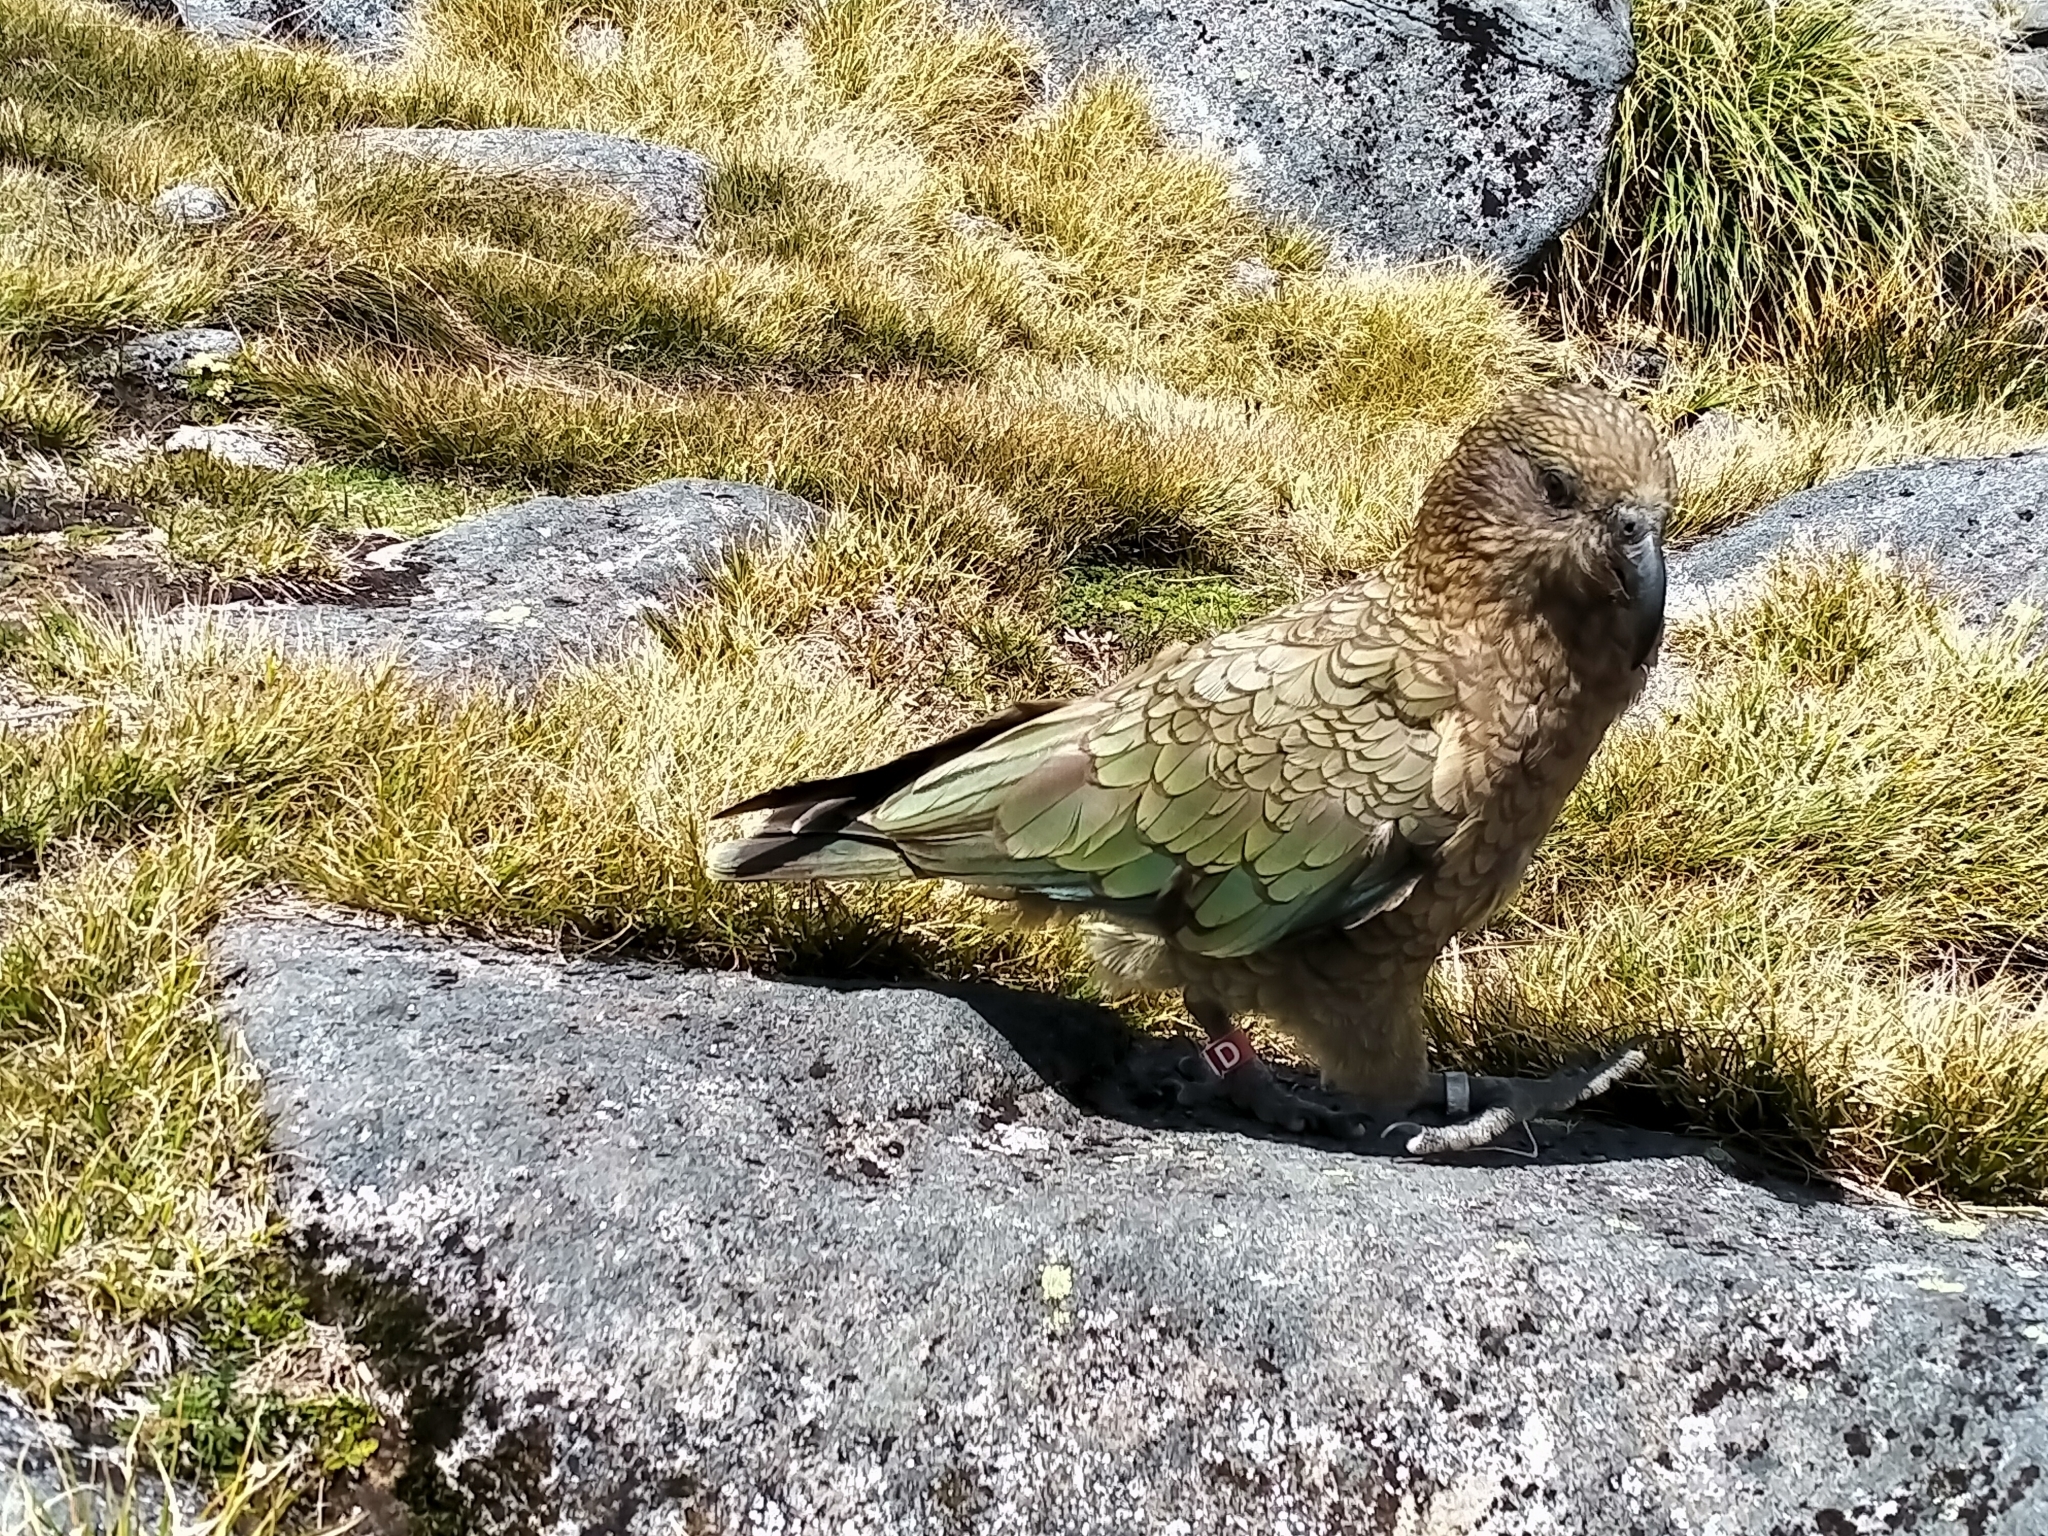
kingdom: Animalia
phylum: Chordata
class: Aves
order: Psittaciformes
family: Psittacidae
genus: Nestor
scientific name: Nestor notabilis
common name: Kea
